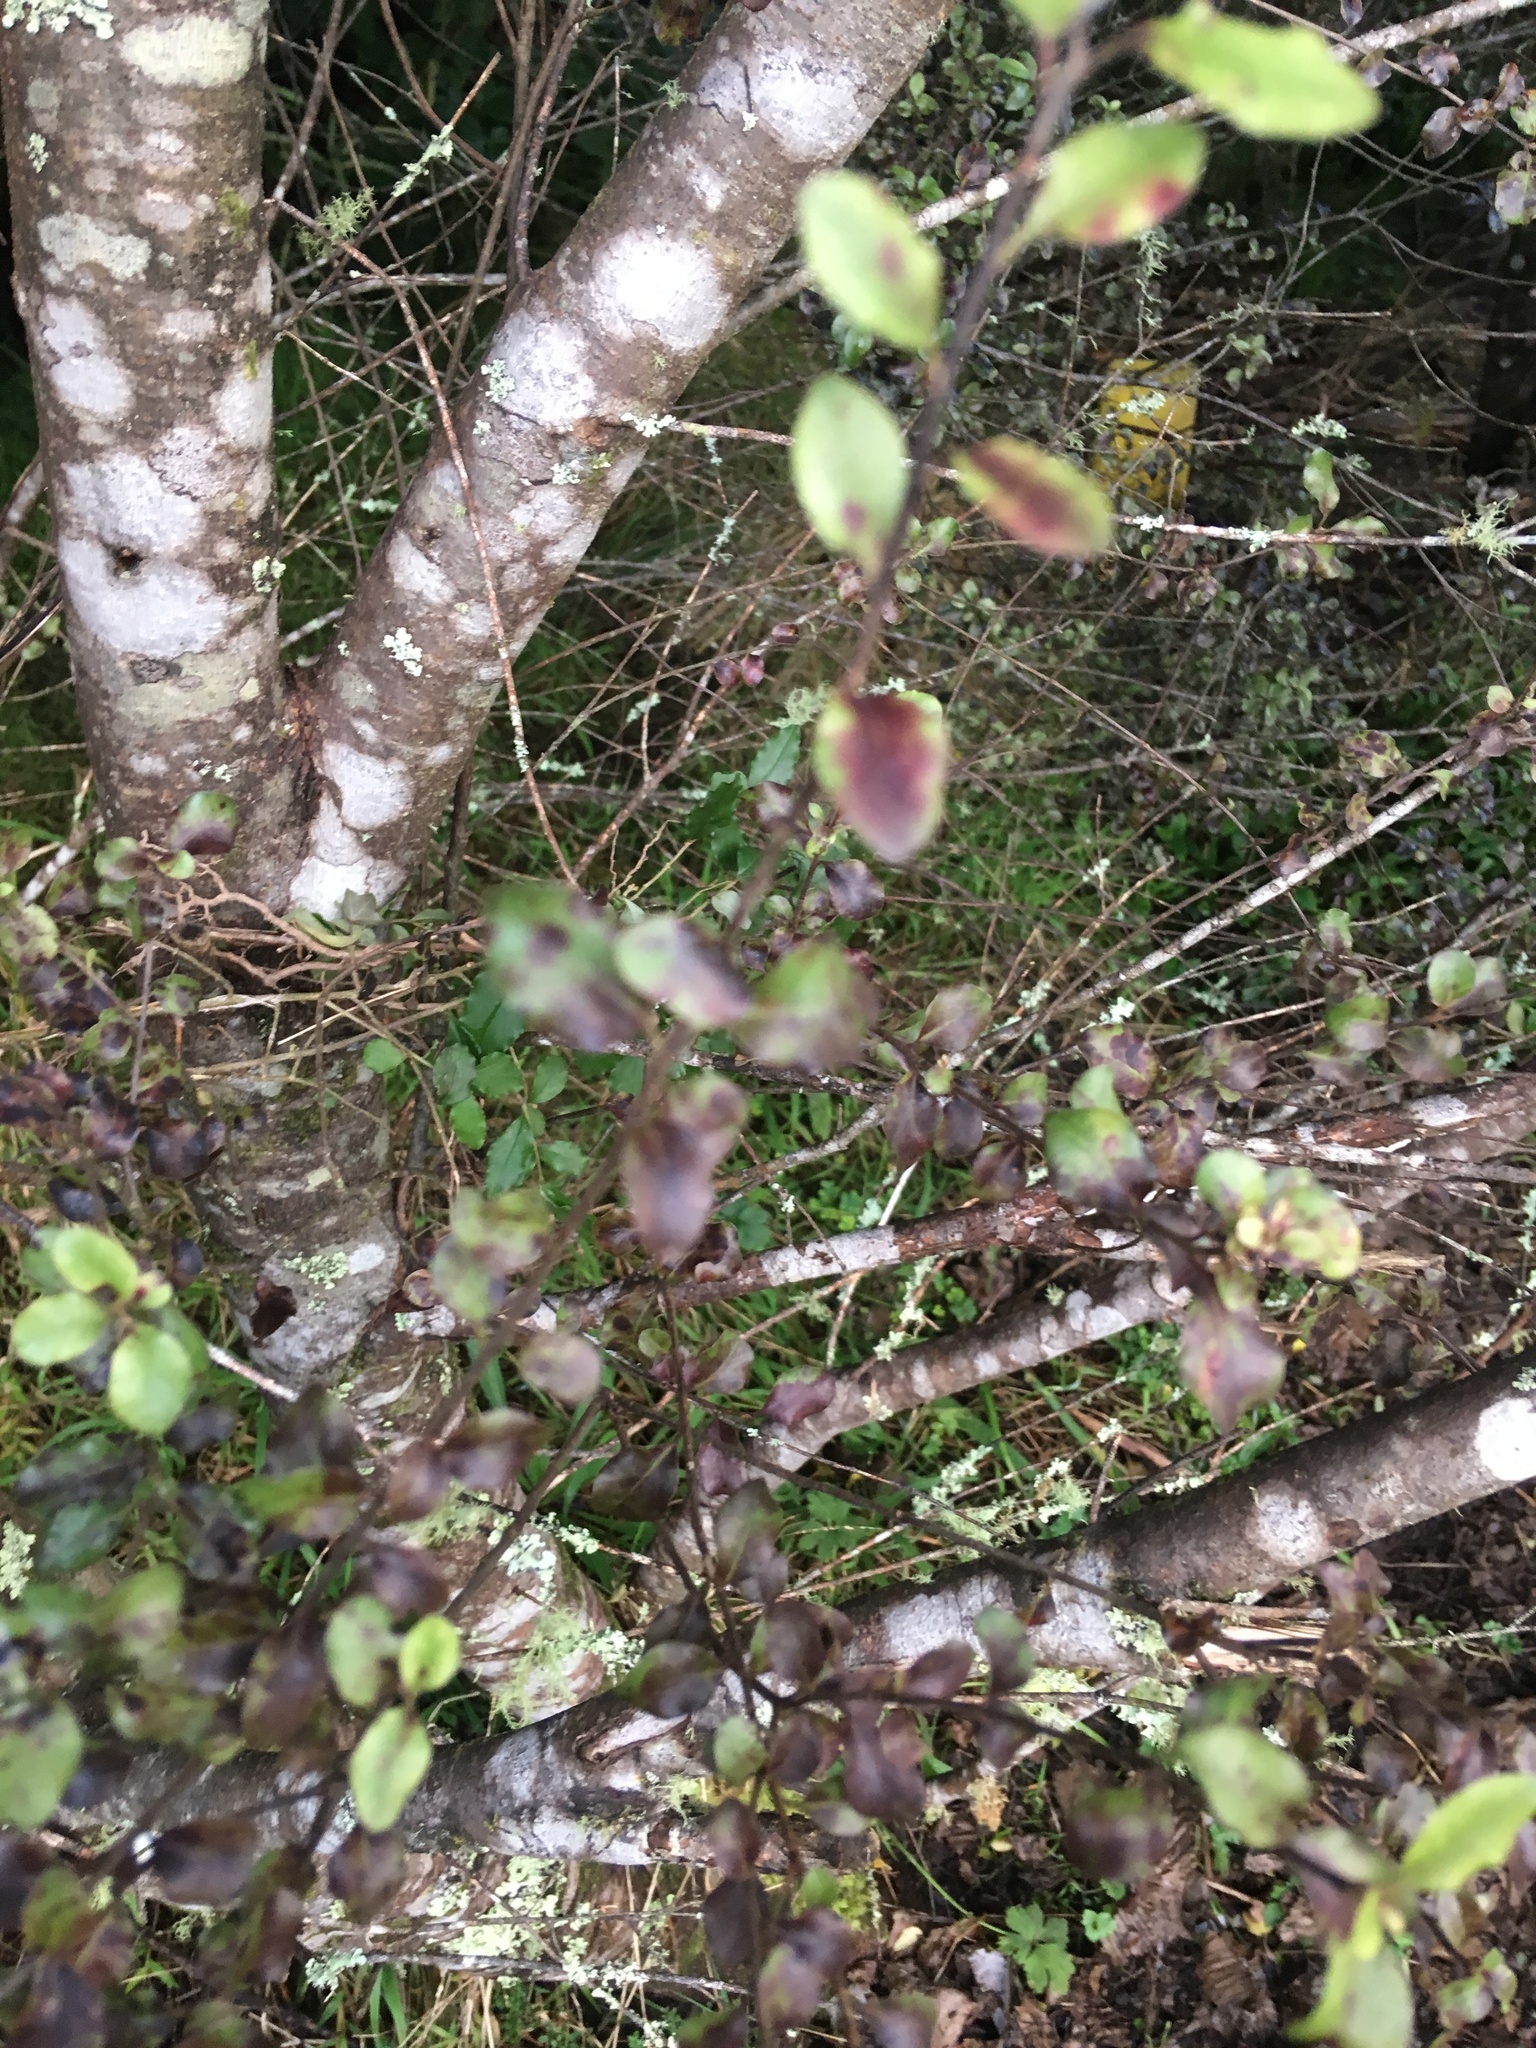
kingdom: Plantae
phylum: Tracheophyta
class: Magnoliopsida
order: Apiales
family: Pittosporaceae
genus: Pittosporum
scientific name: Pittosporum tenuifolium
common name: Kohuhu
